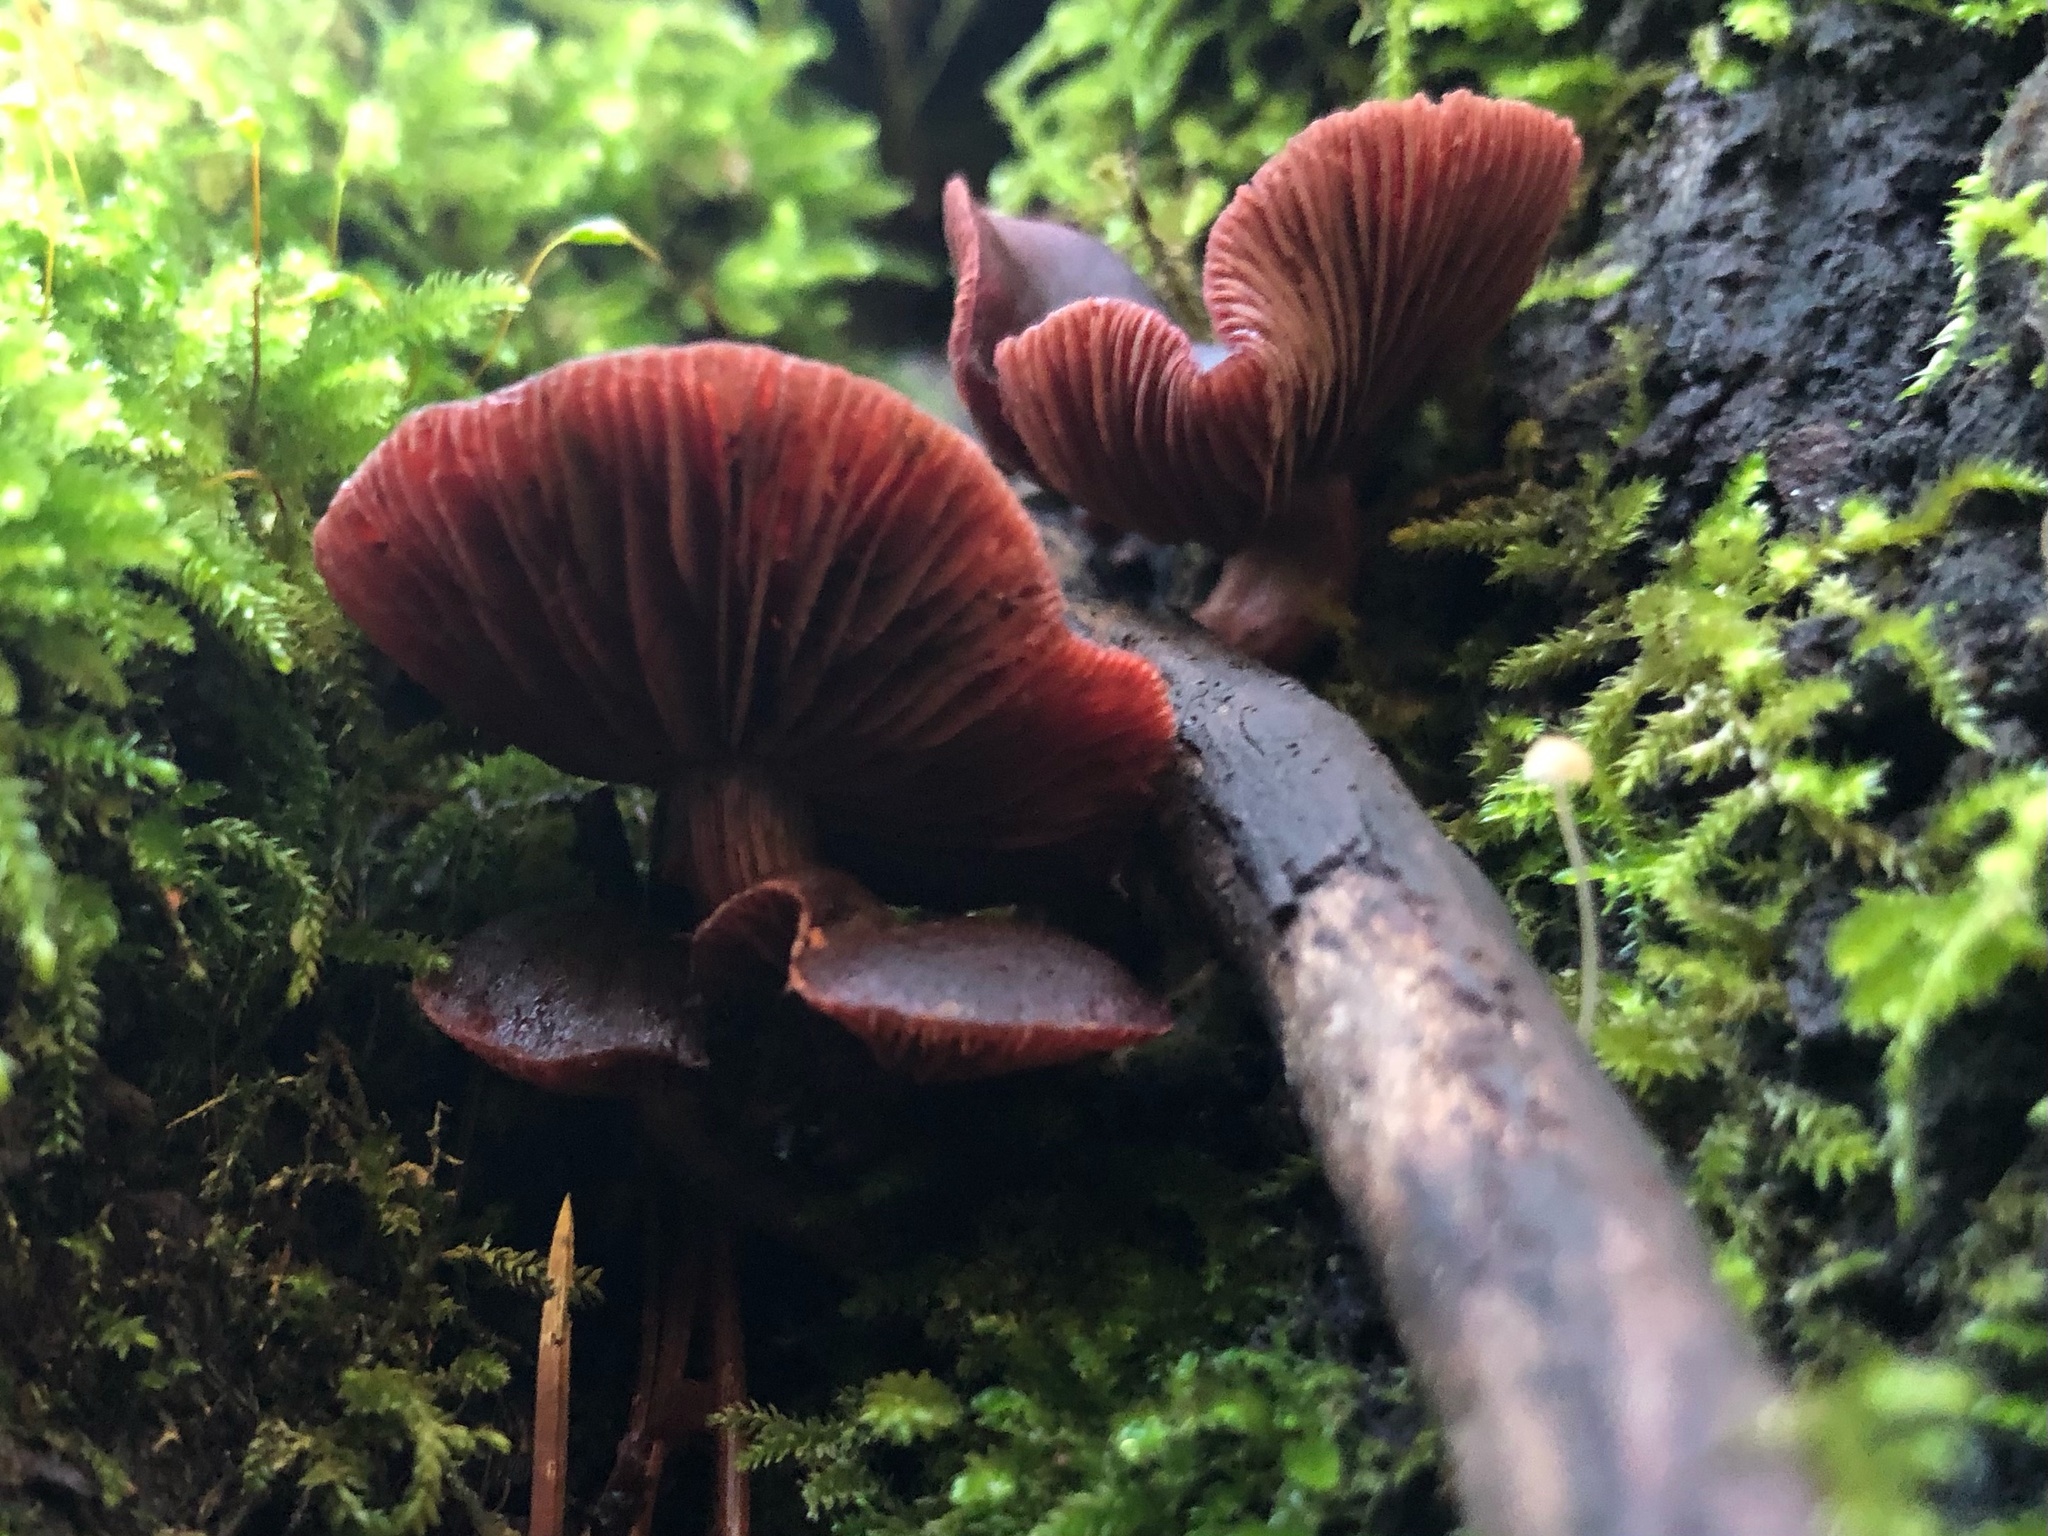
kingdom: Fungi
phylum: Basidiomycota
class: Agaricomycetes
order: Agaricales
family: Tubariaceae
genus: Tubaria
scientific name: Tubaria punicea
